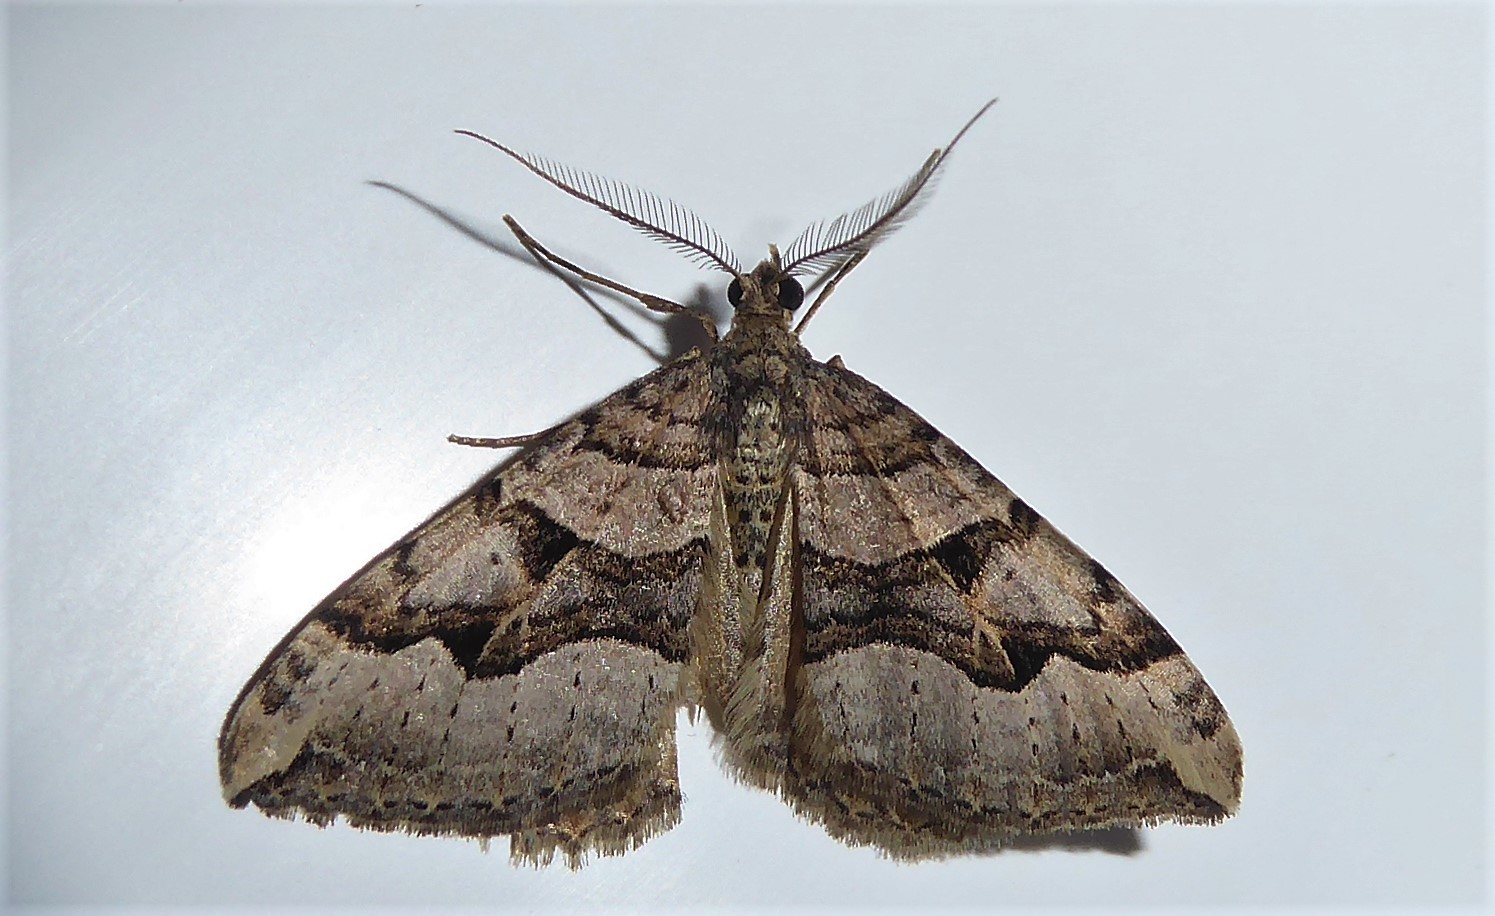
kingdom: Animalia
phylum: Arthropoda
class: Insecta
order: Lepidoptera
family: Geometridae
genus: Xanthorhoe
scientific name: Xanthorhoe semifissata
